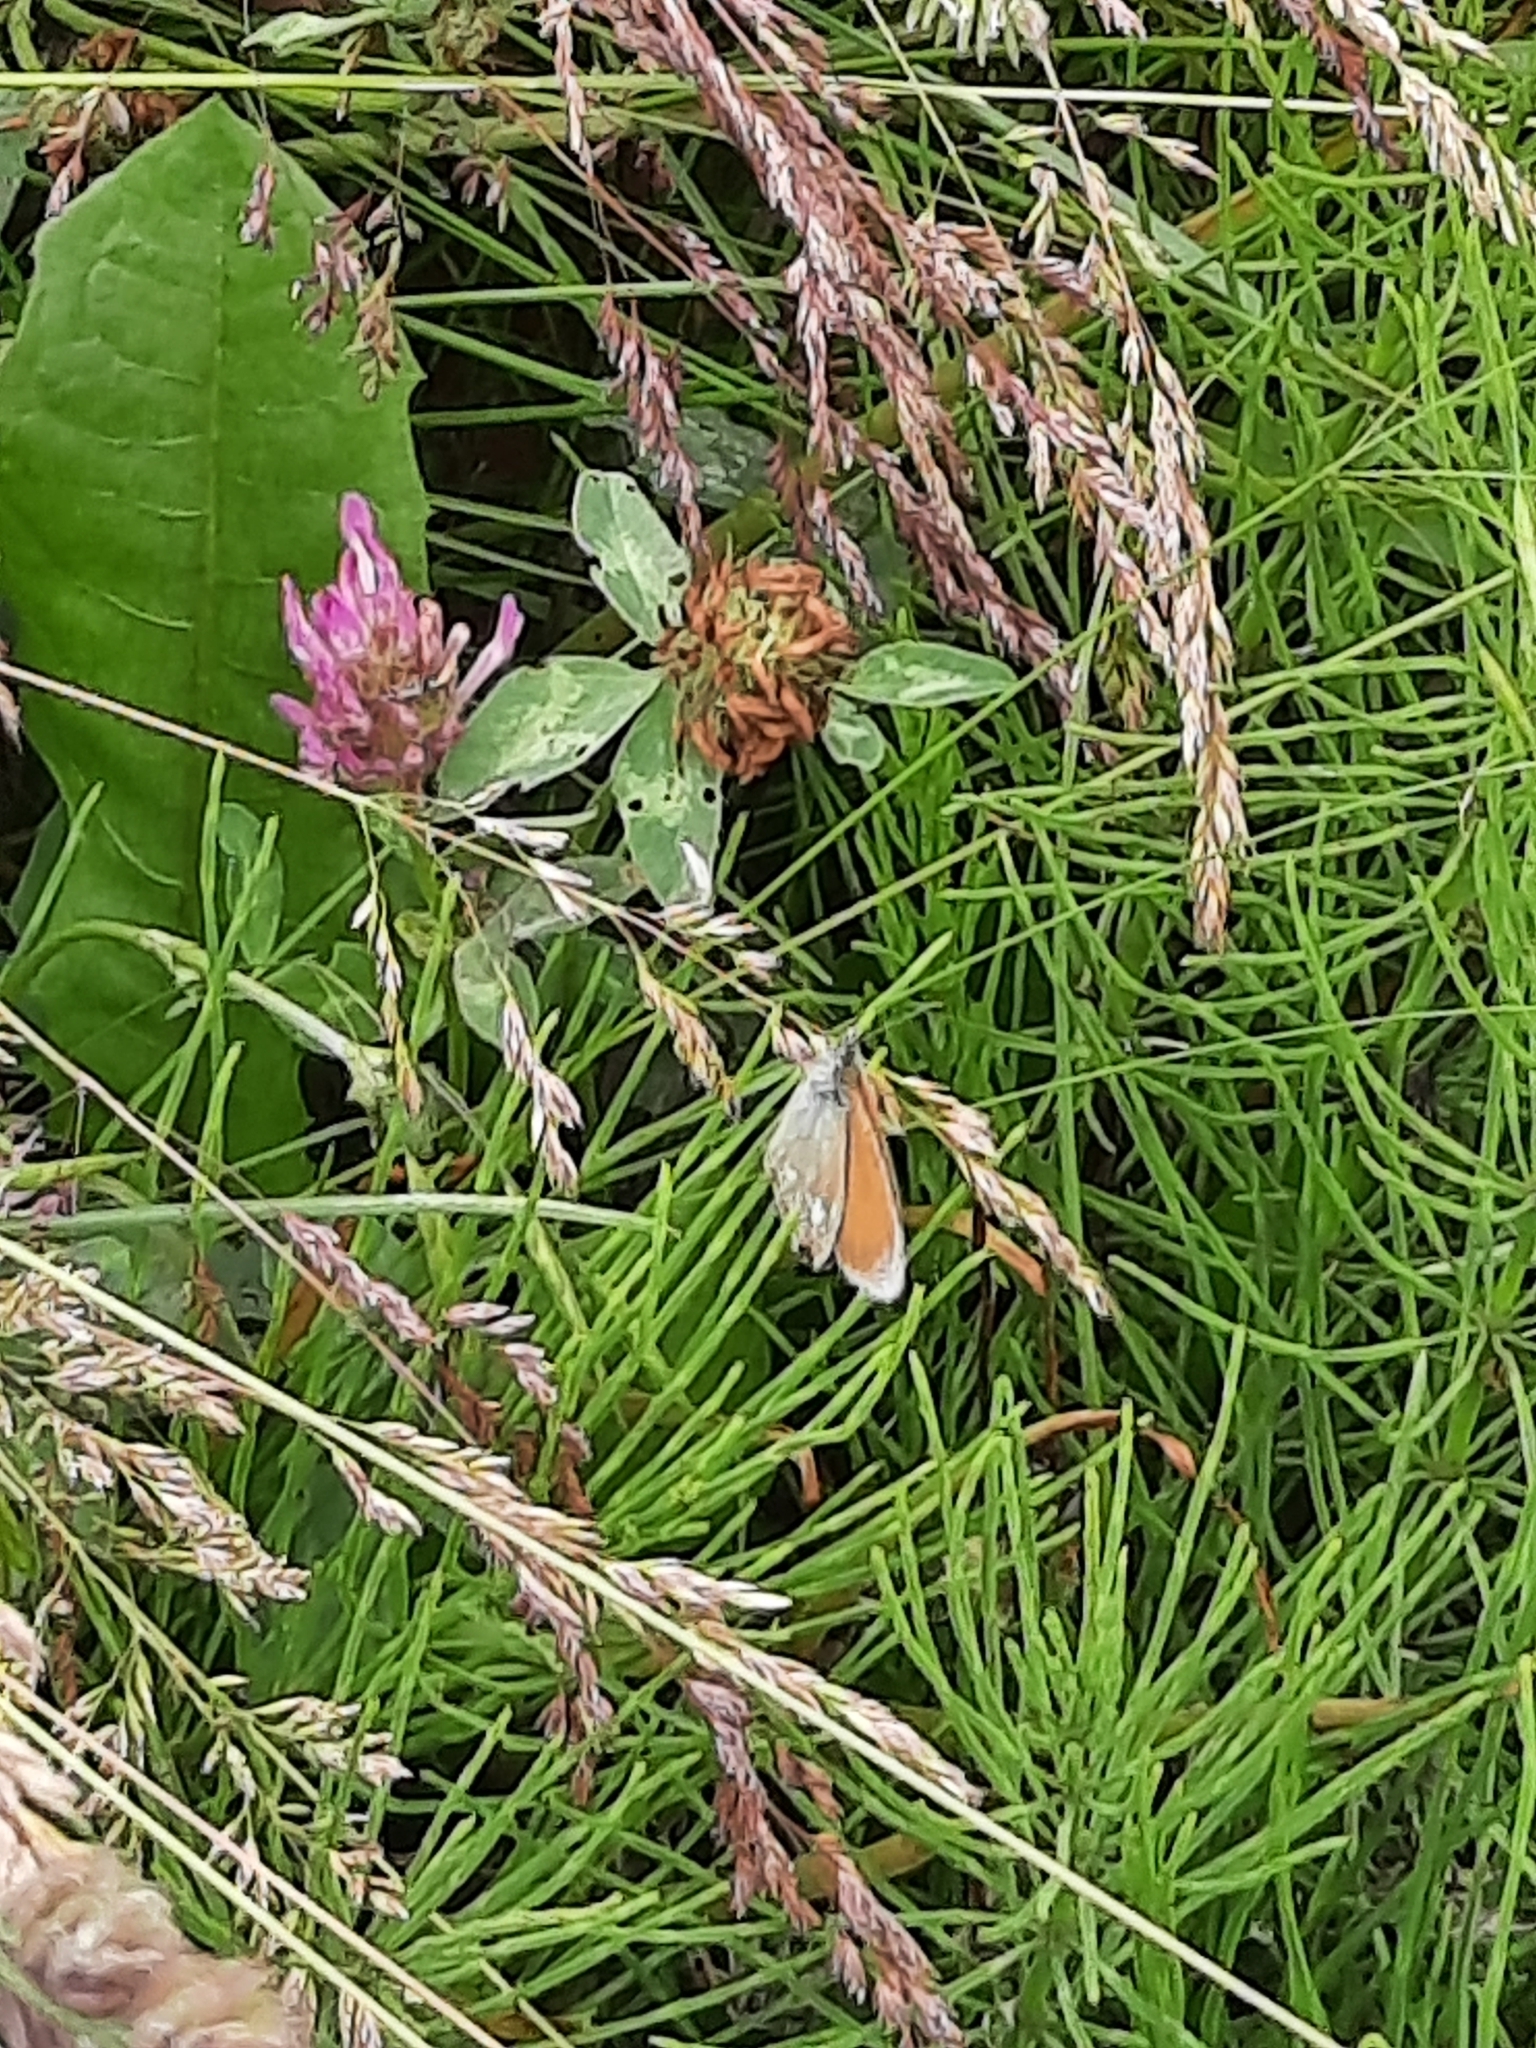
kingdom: Animalia
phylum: Arthropoda
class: Insecta
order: Lepidoptera
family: Nymphalidae
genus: Coenonympha
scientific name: Coenonympha iphis
